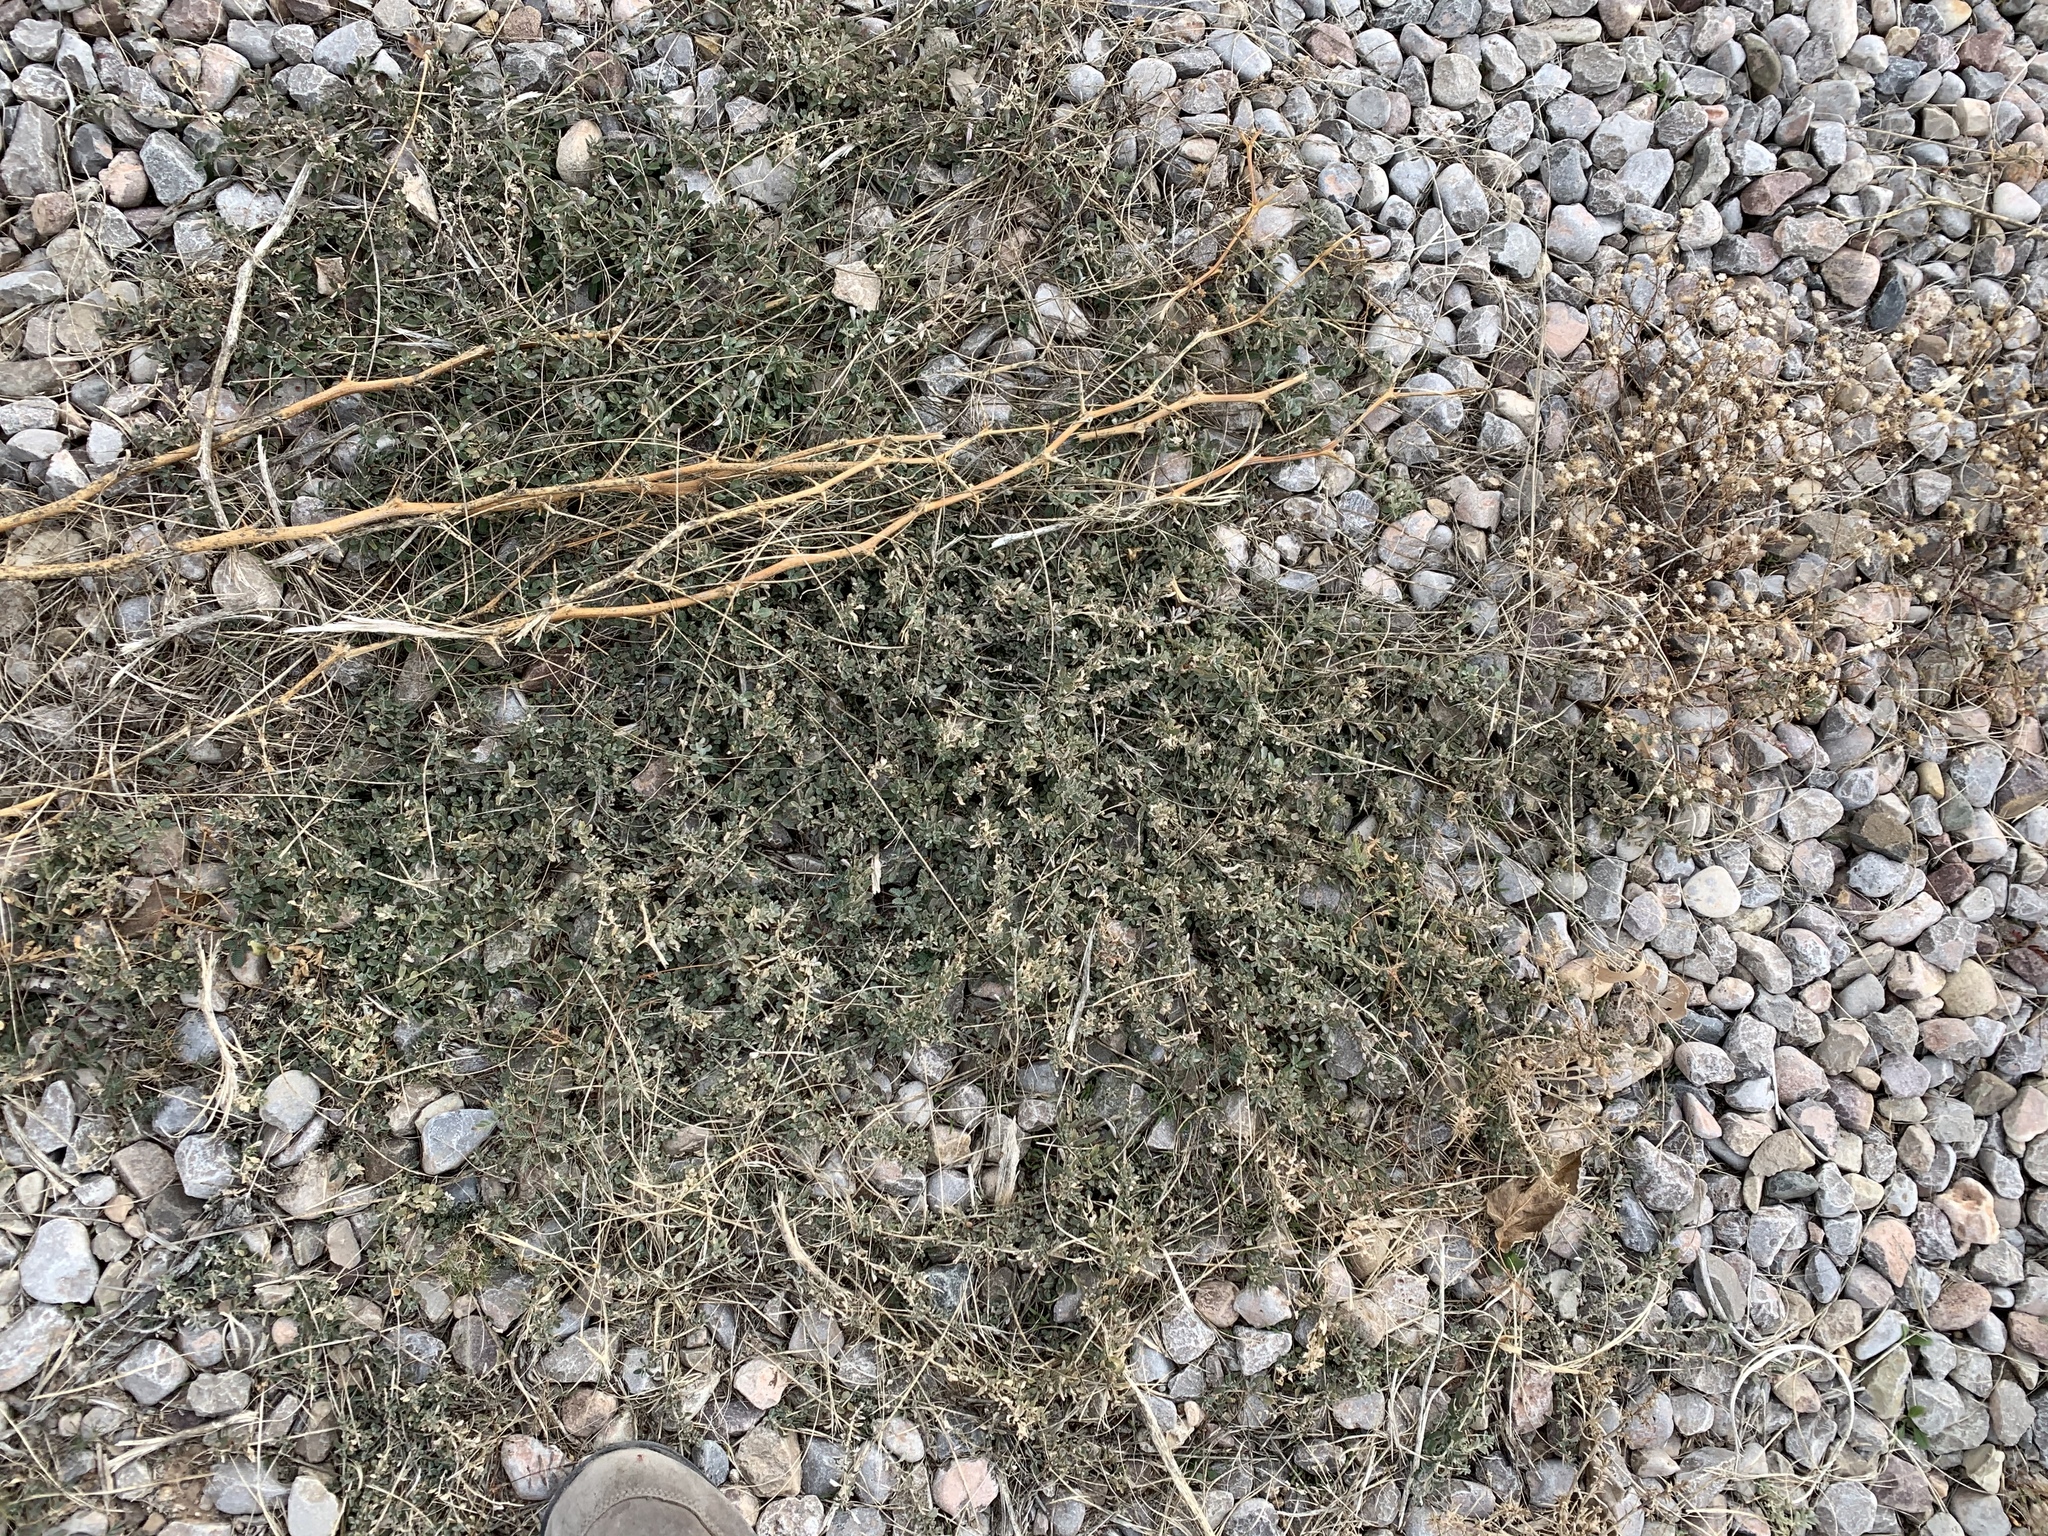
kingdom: Plantae
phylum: Tracheophyta
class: Magnoliopsida
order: Caryophyllales
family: Amaranthaceae
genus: Atriplex
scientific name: Atriplex semibaccata
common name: Australian saltbush
